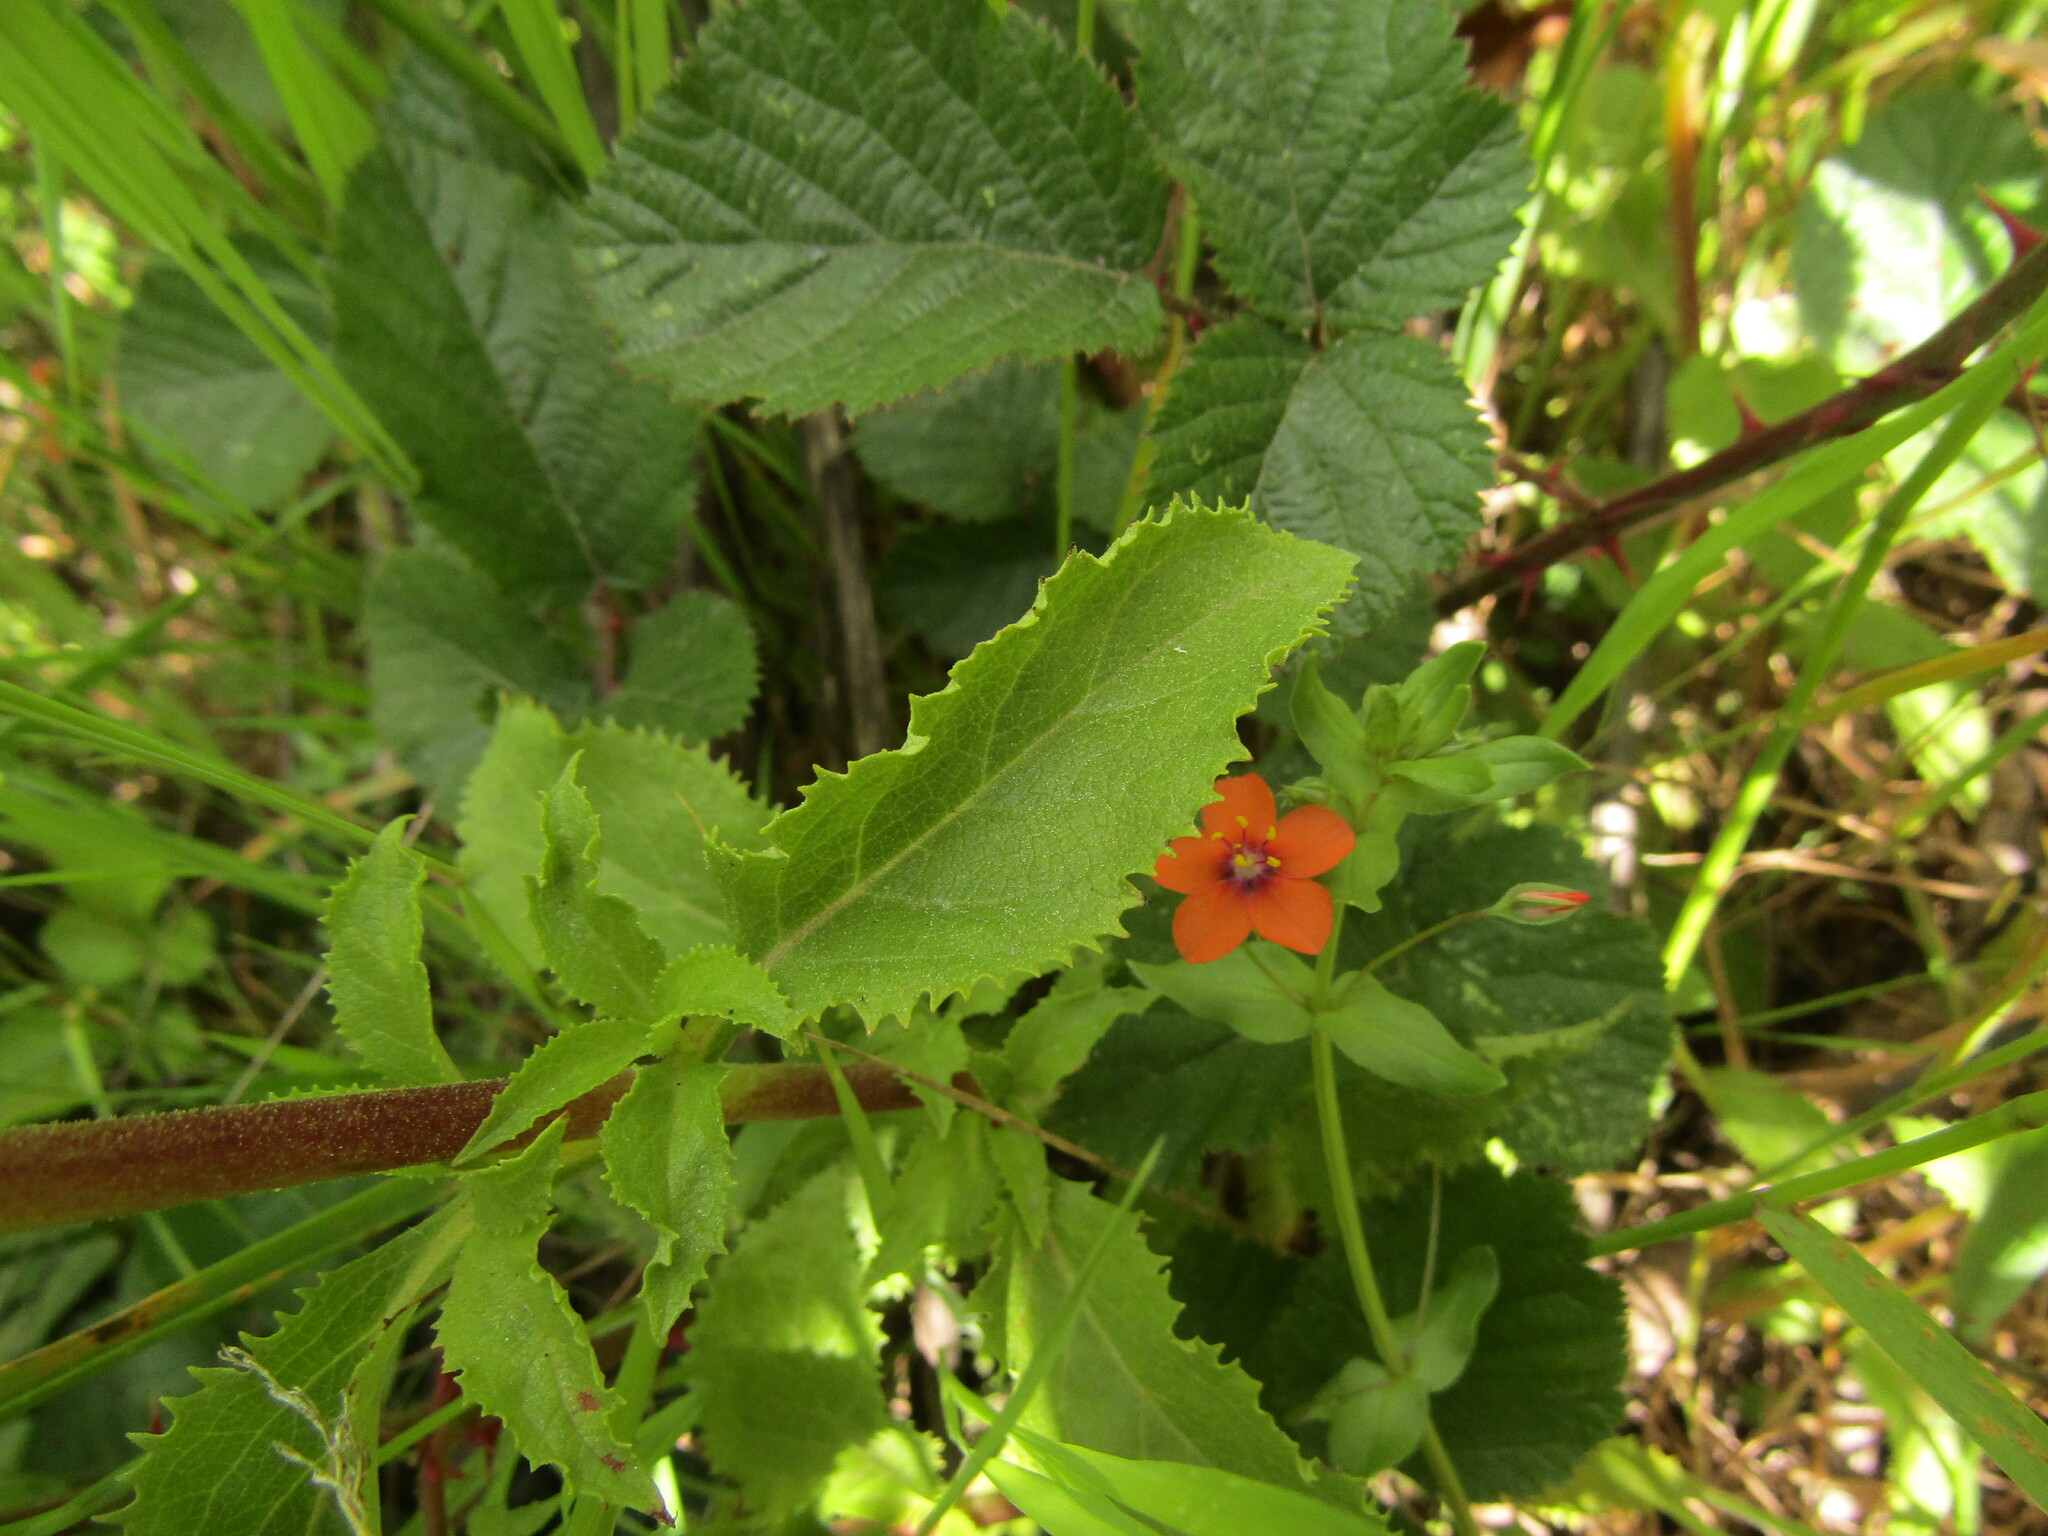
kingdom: Plantae
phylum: Tracheophyta
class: Magnoliopsida
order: Lamiales
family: Calceolariaceae
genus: Calceolaria
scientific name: Calceolaria dentata
